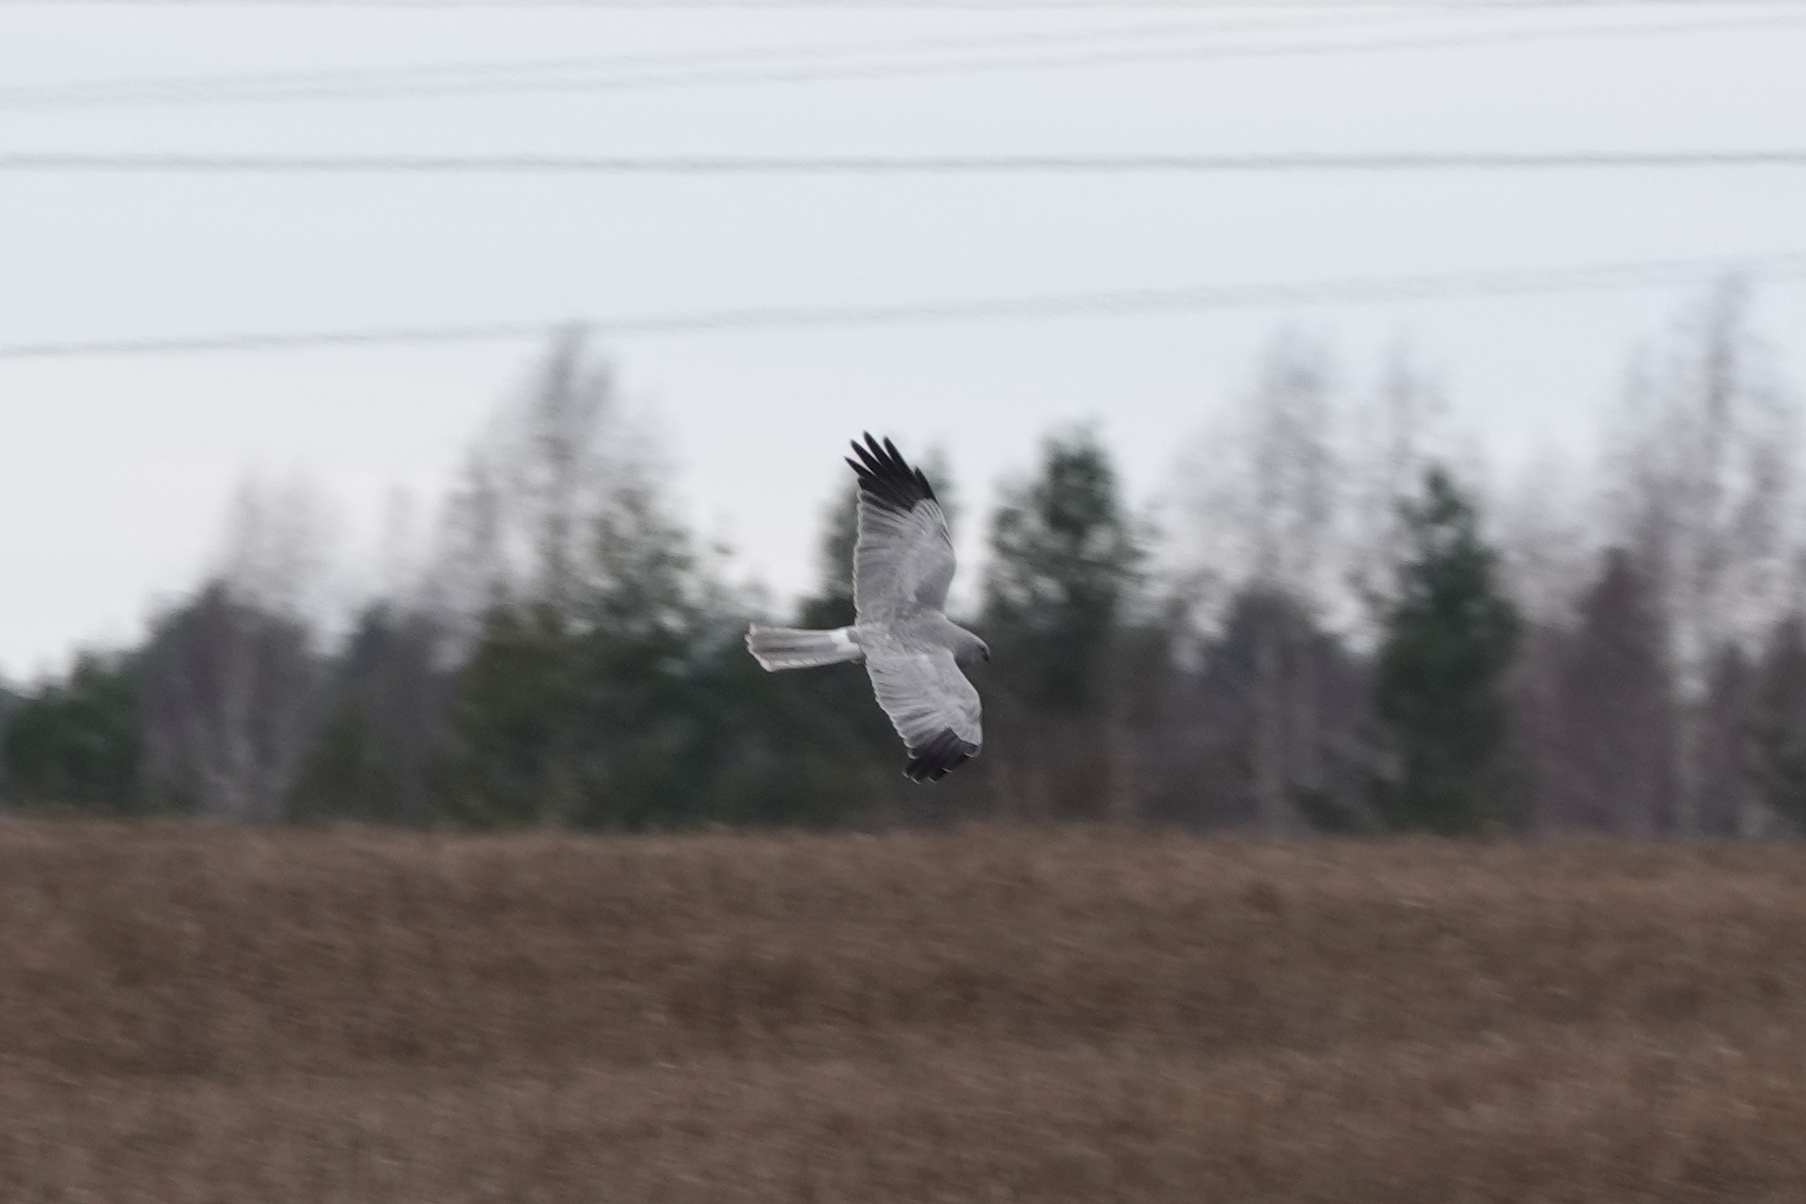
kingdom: Animalia
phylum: Chordata
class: Aves
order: Accipitriformes
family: Accipitridae
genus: Circus
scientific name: Circus cyaneus
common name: Hen harrier
